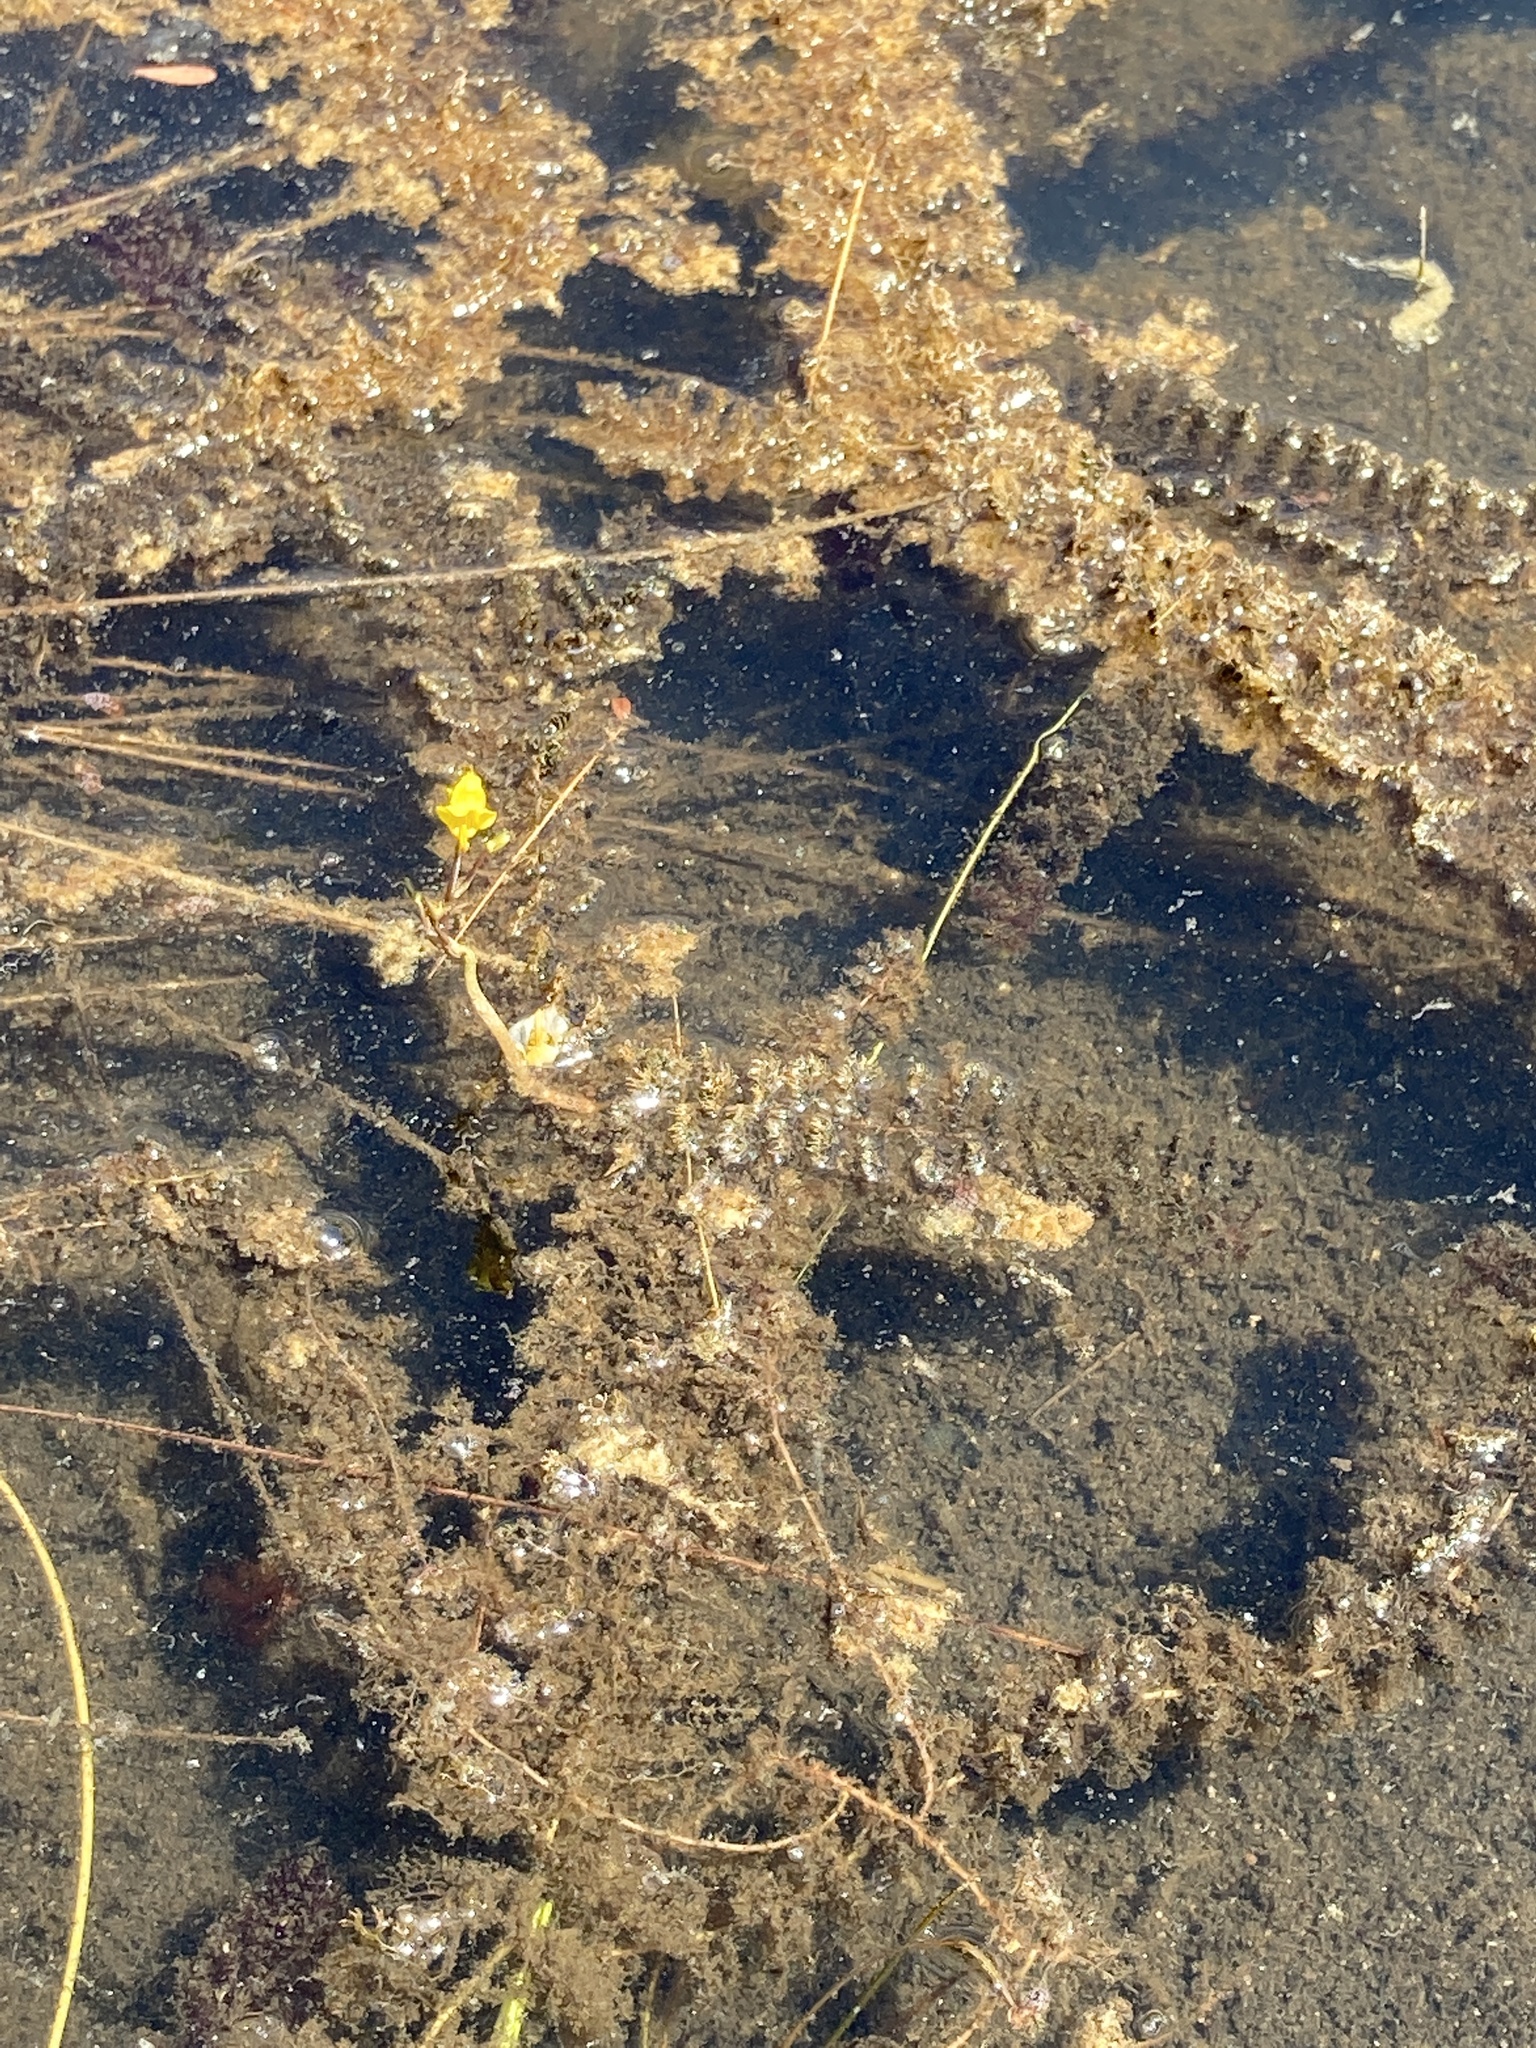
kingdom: Plantae
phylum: Tracheophyta
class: Magnoliopsida
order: Lamiales
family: Lentibulariaceae
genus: Utricularia
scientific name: Utricularia macrorhiza
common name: Common bladderwort
